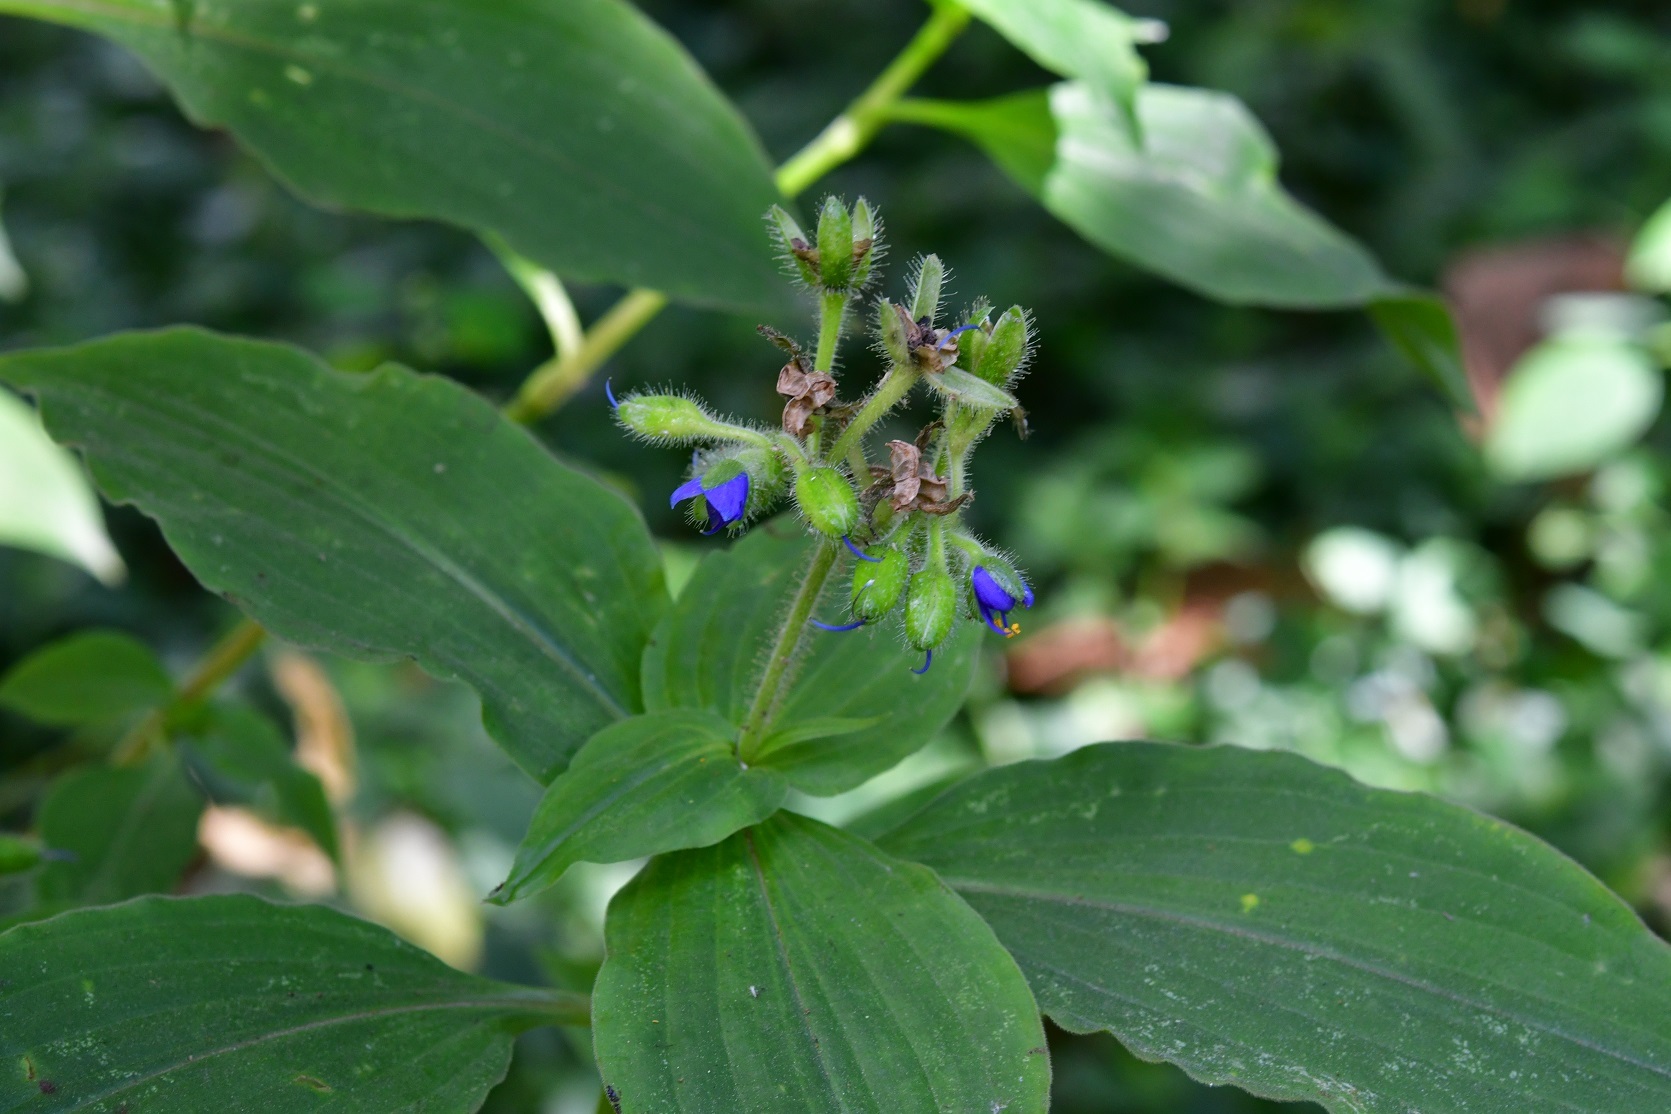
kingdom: Plantae
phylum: Tracheophyta
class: Liliopsida
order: Commelinales
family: Commelinaceae
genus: Tinantia
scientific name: Tinantia erecta
